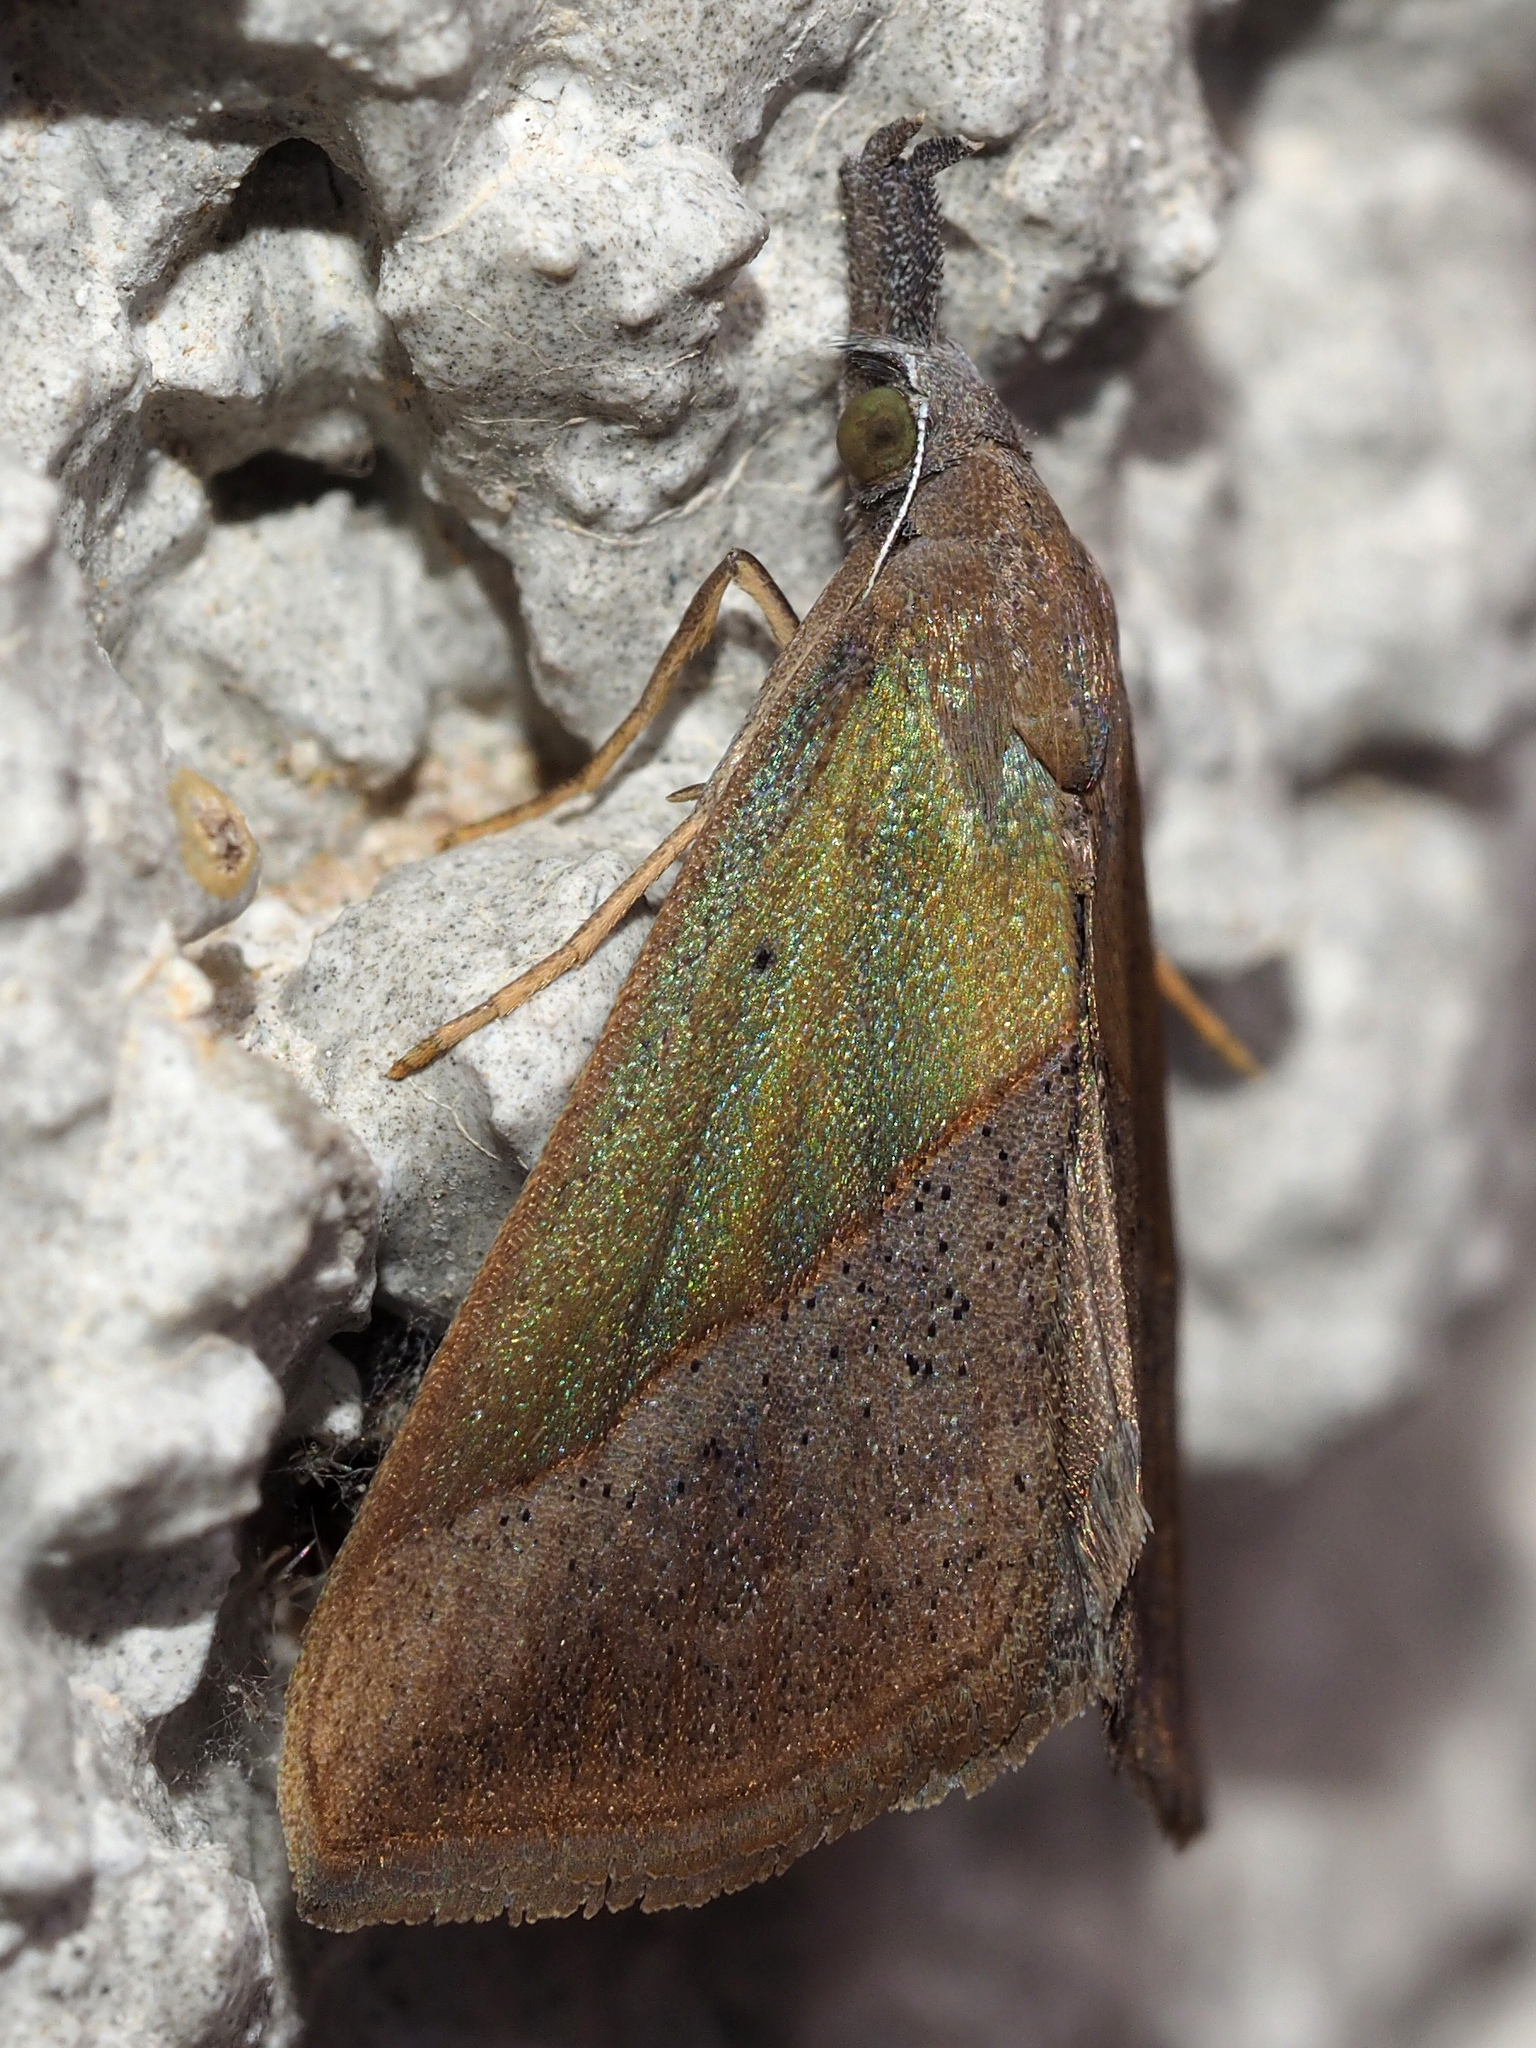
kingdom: Animalia
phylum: Arthropoda
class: Insecta
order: Lepidoptera
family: Erebidae
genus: Hypena
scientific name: Hypena lividalis
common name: Chevron snout
